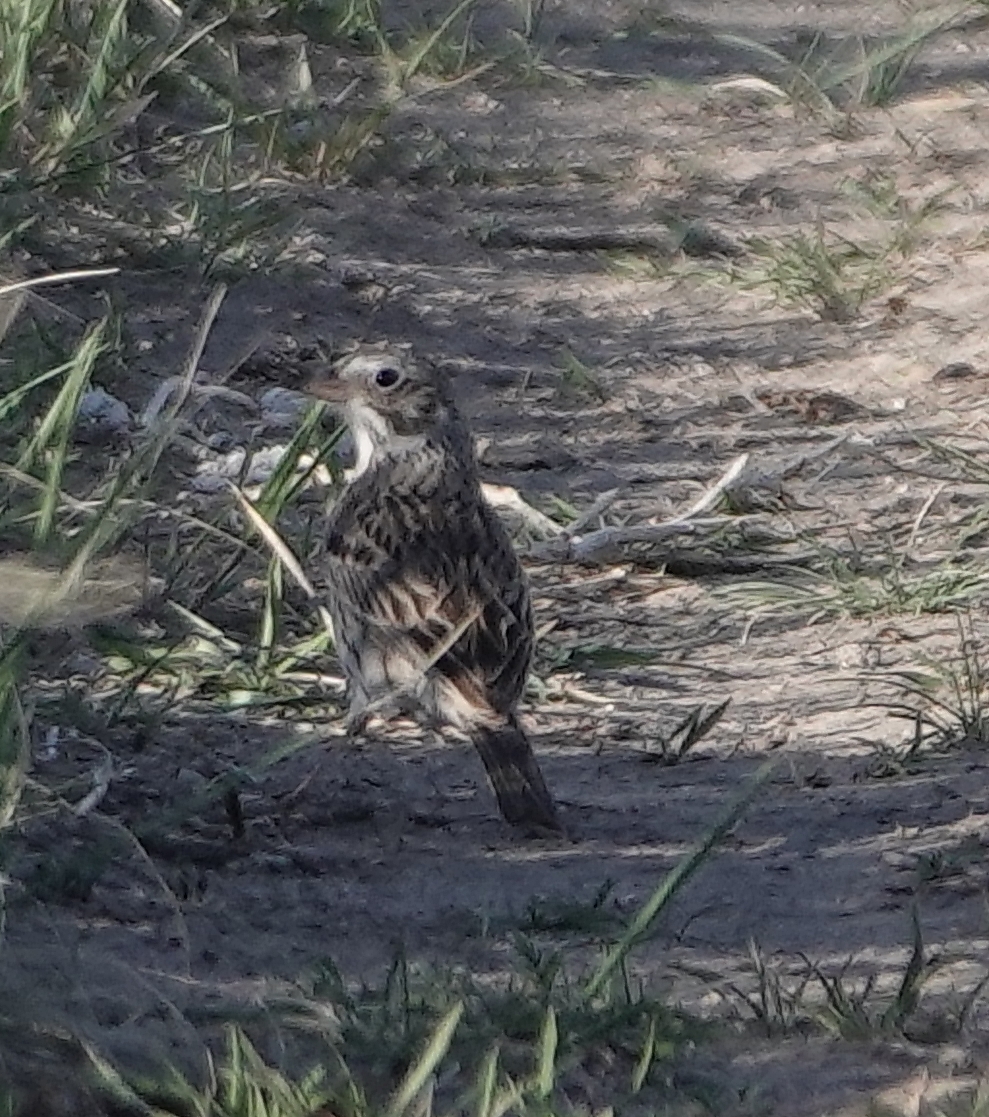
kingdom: Animalia
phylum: Chordata
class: Aves
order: Passeriformes
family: Passerellidae
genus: Pooecetes
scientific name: Pooecetes gramineus
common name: Vesper sparrow
